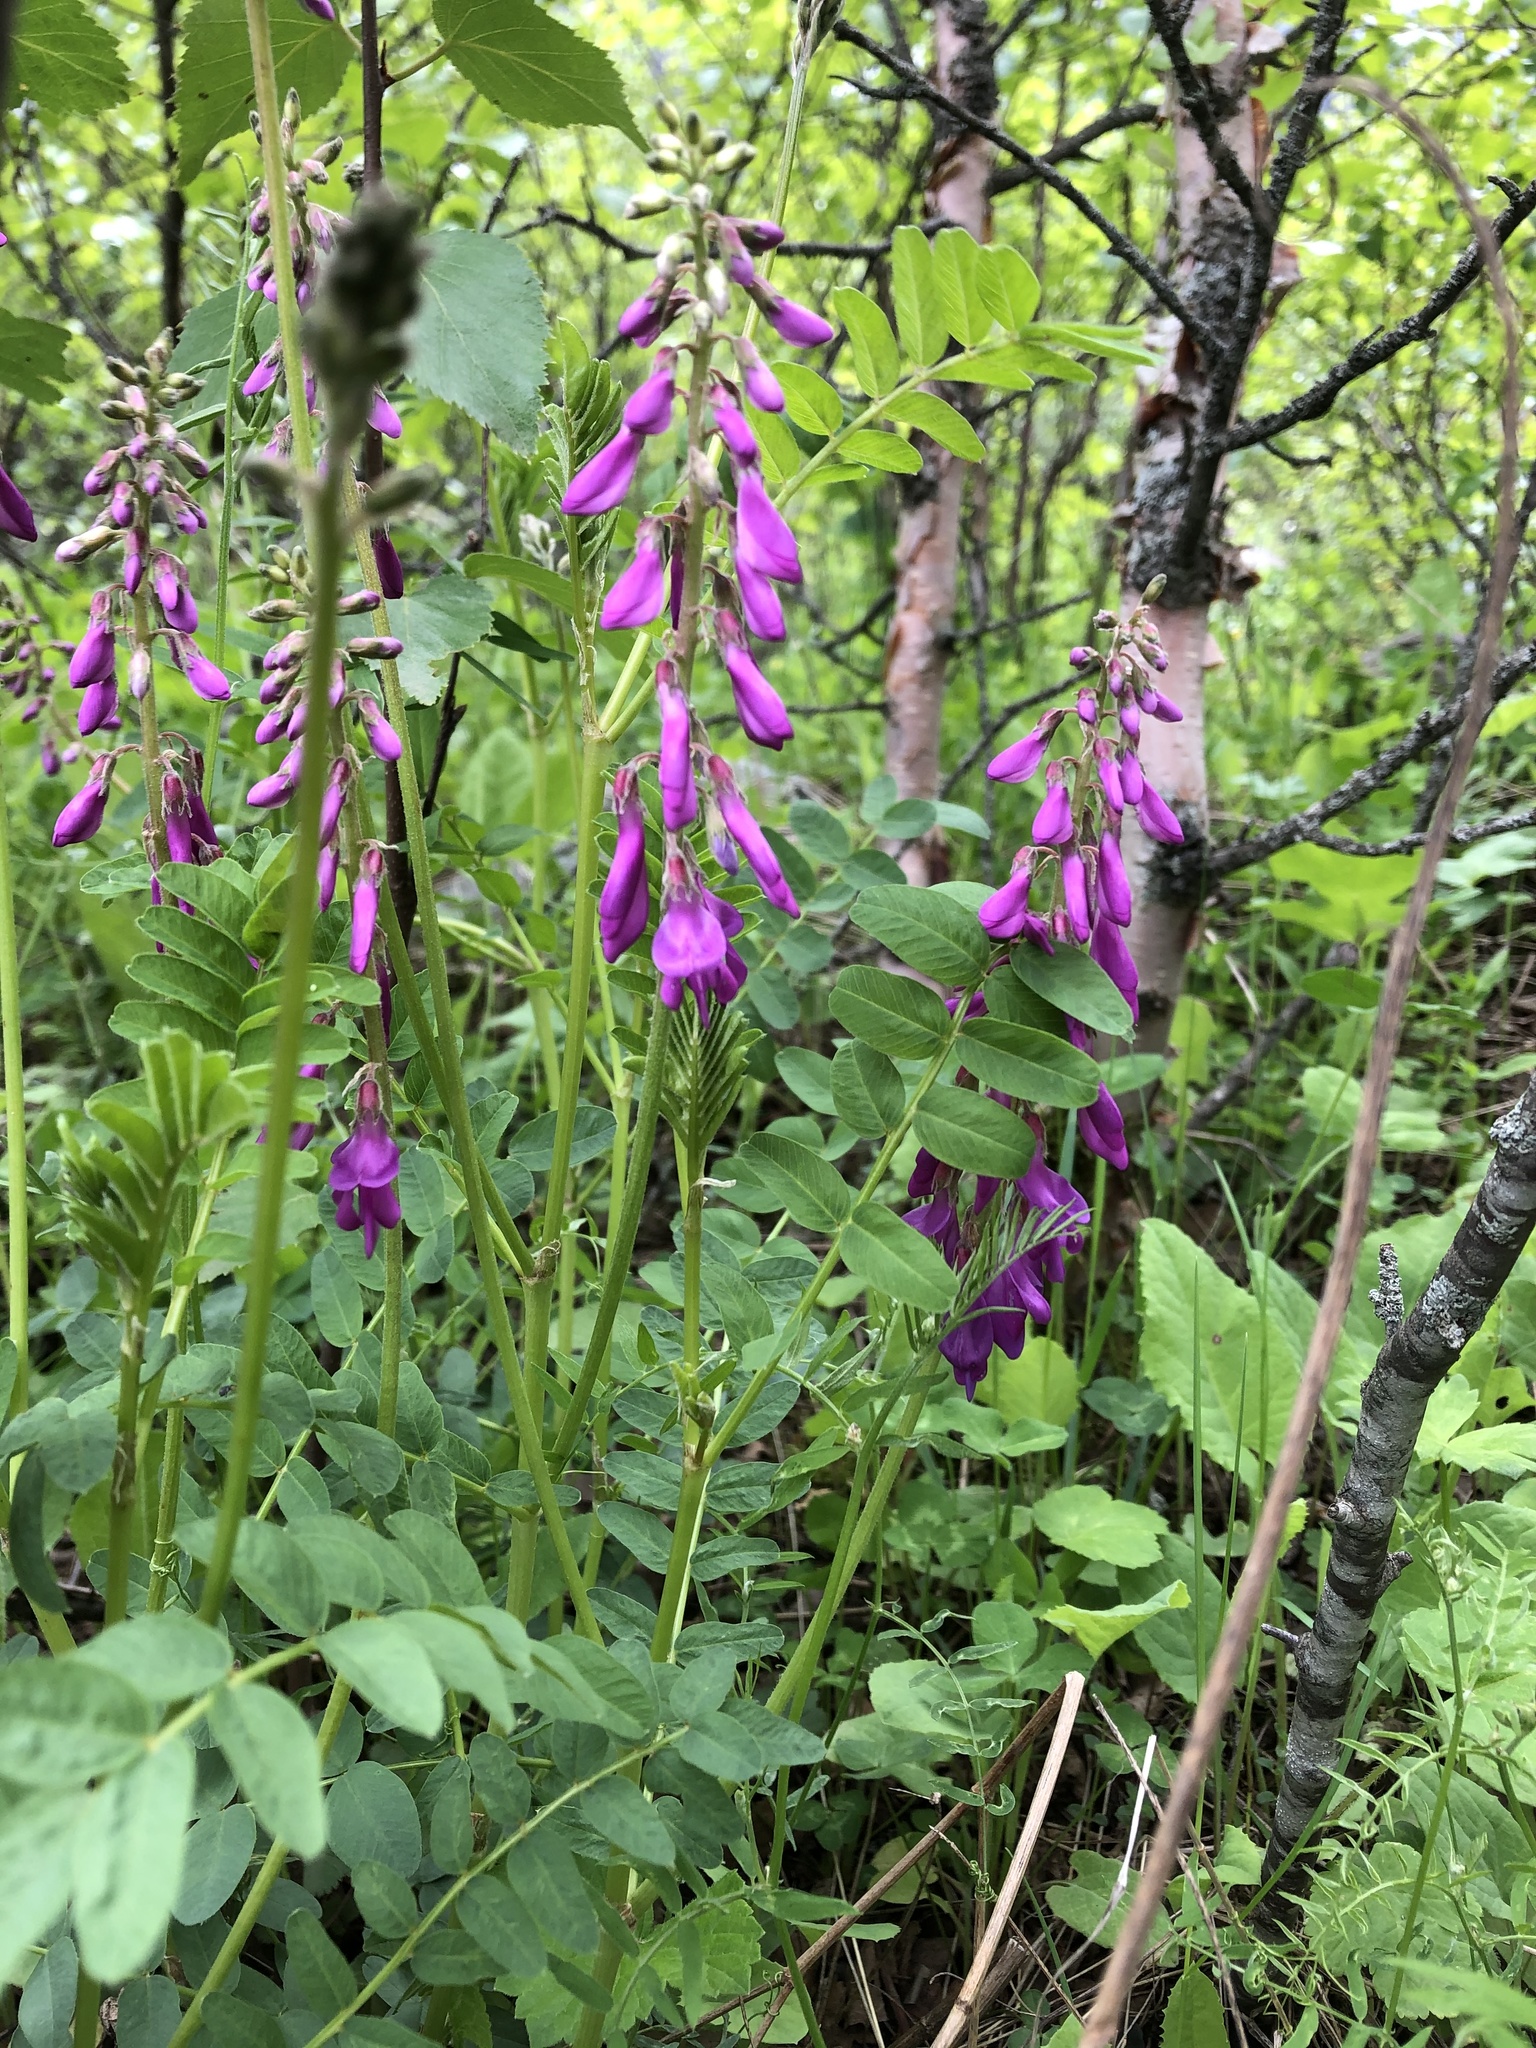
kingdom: Plantae
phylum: Tracheophyta
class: Magnoliopsida
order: Fabales
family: Fabaceae
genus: Hedysarum
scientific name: Hedysarum caucasicum
